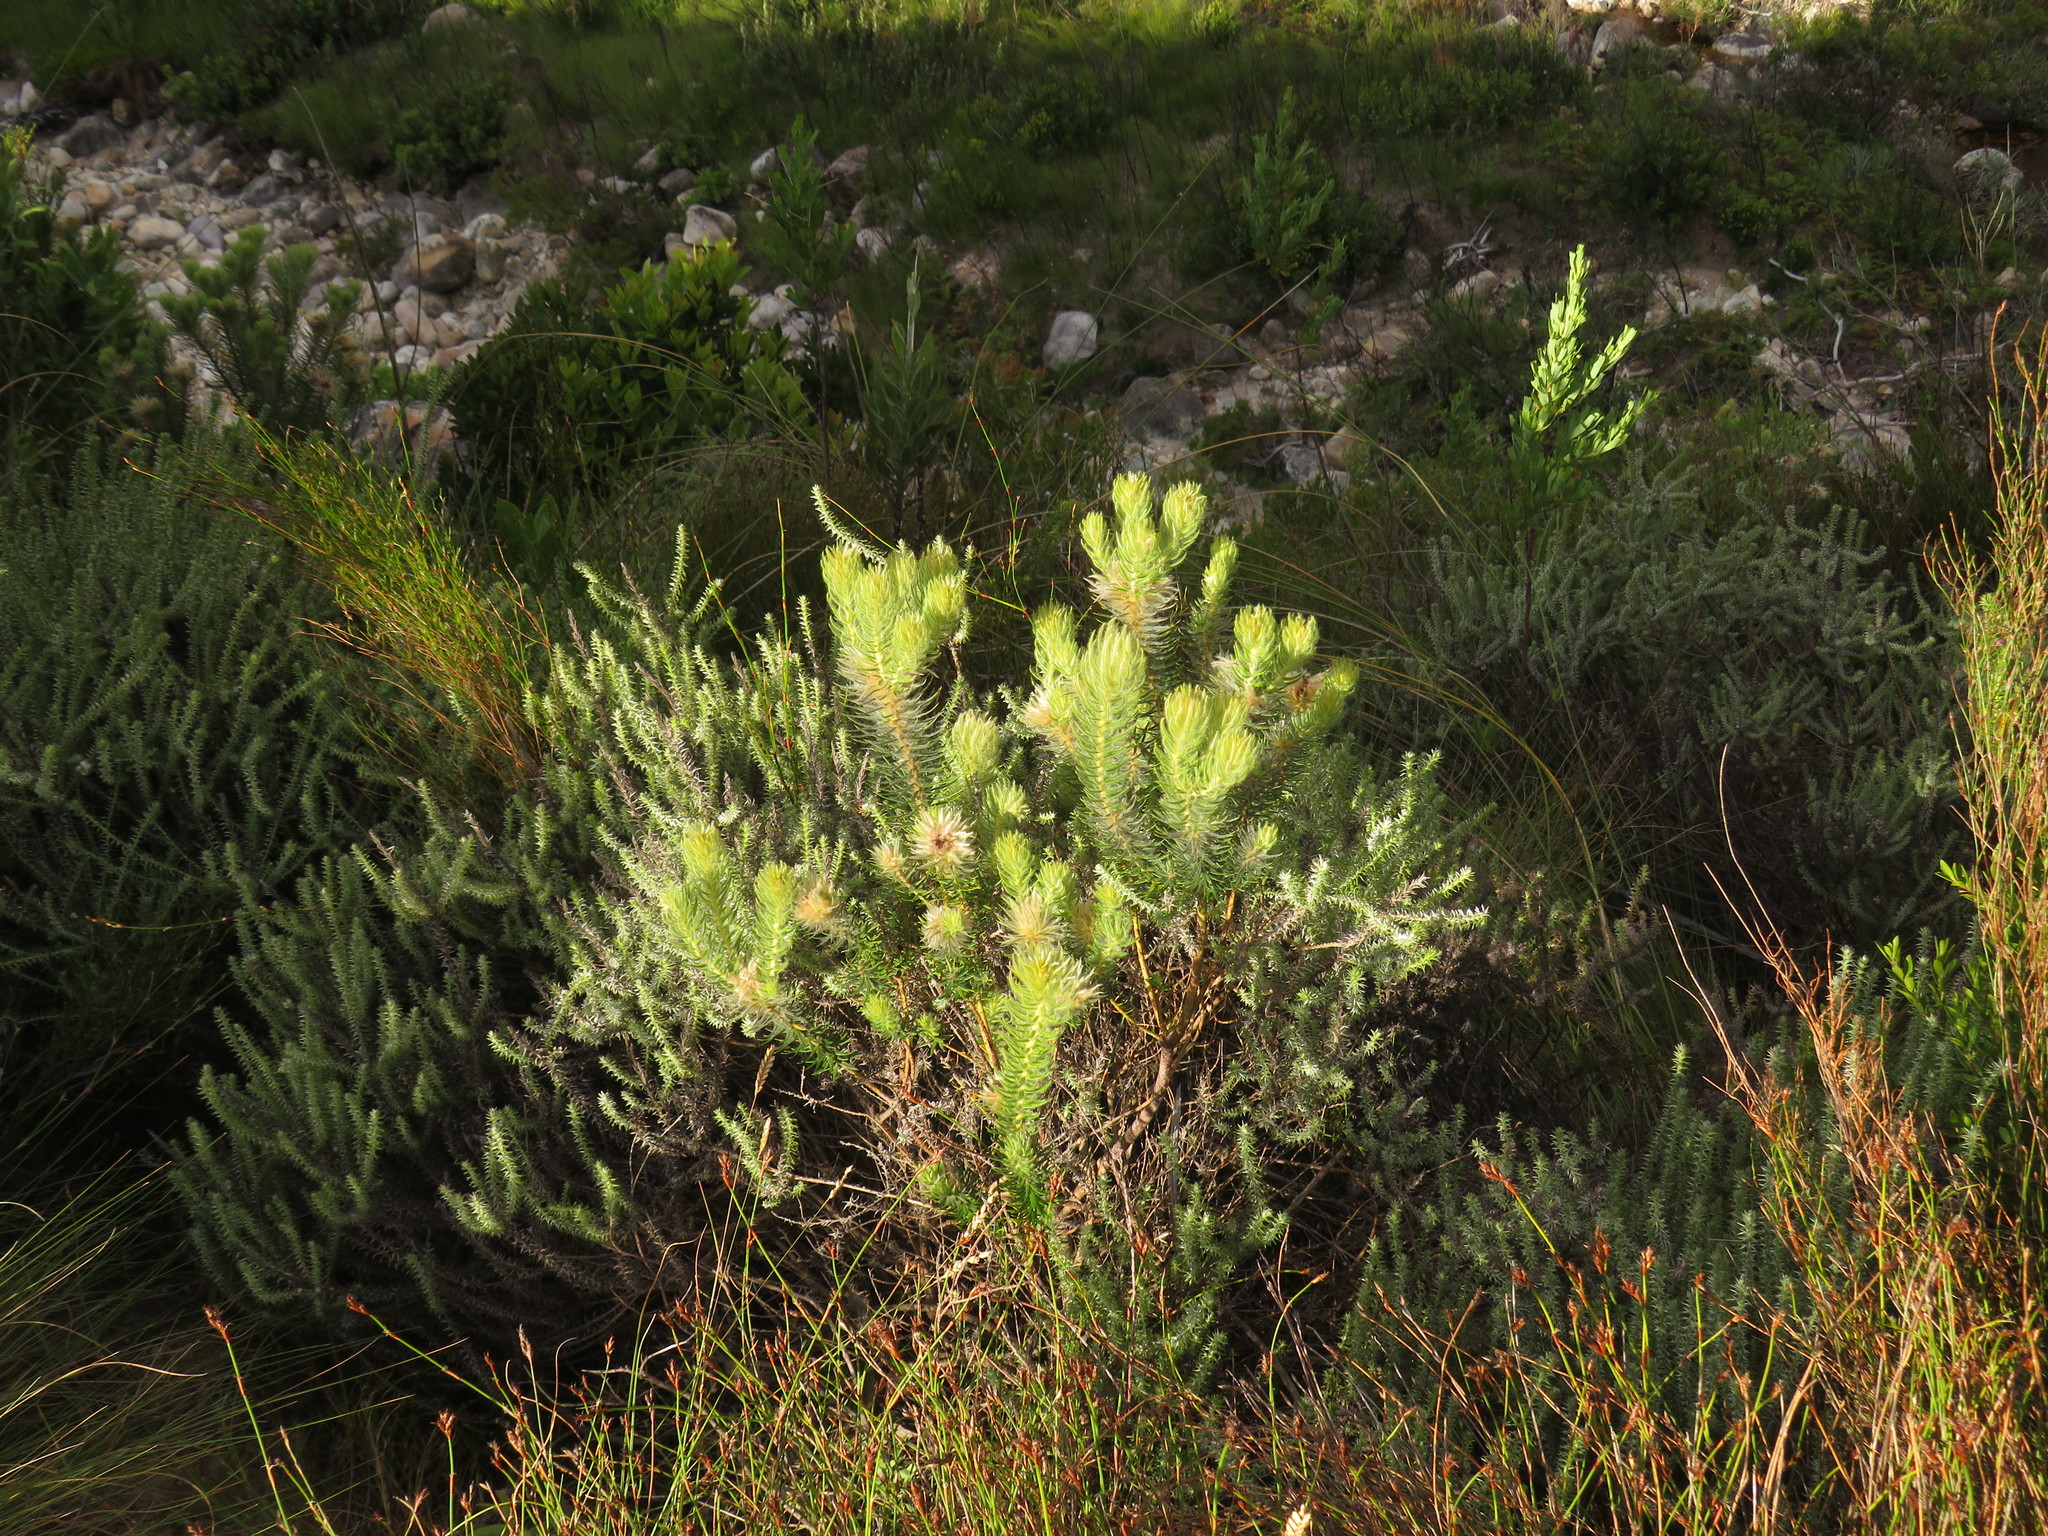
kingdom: Plantae
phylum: Tracheophyta
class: Magnoliopsida
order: Rosales
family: Rhamnaceae
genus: Phylica
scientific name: Phylica pubescens
